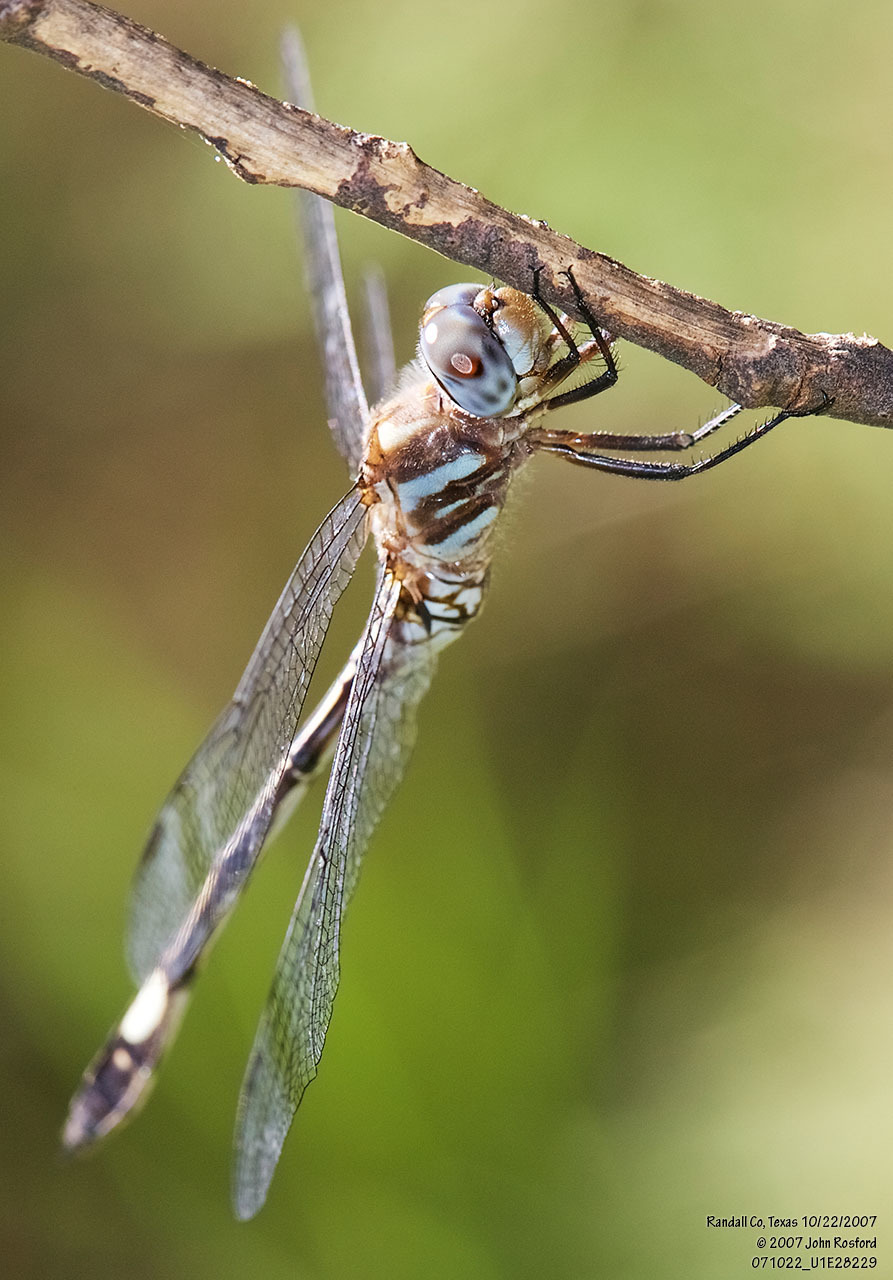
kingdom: Animalia
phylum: Arthropoda
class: Insecta
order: Odonata
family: Libellulidae
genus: Brechmorhoga
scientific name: Brechmorhoga mendax
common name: Pale-faced clubskimmer
